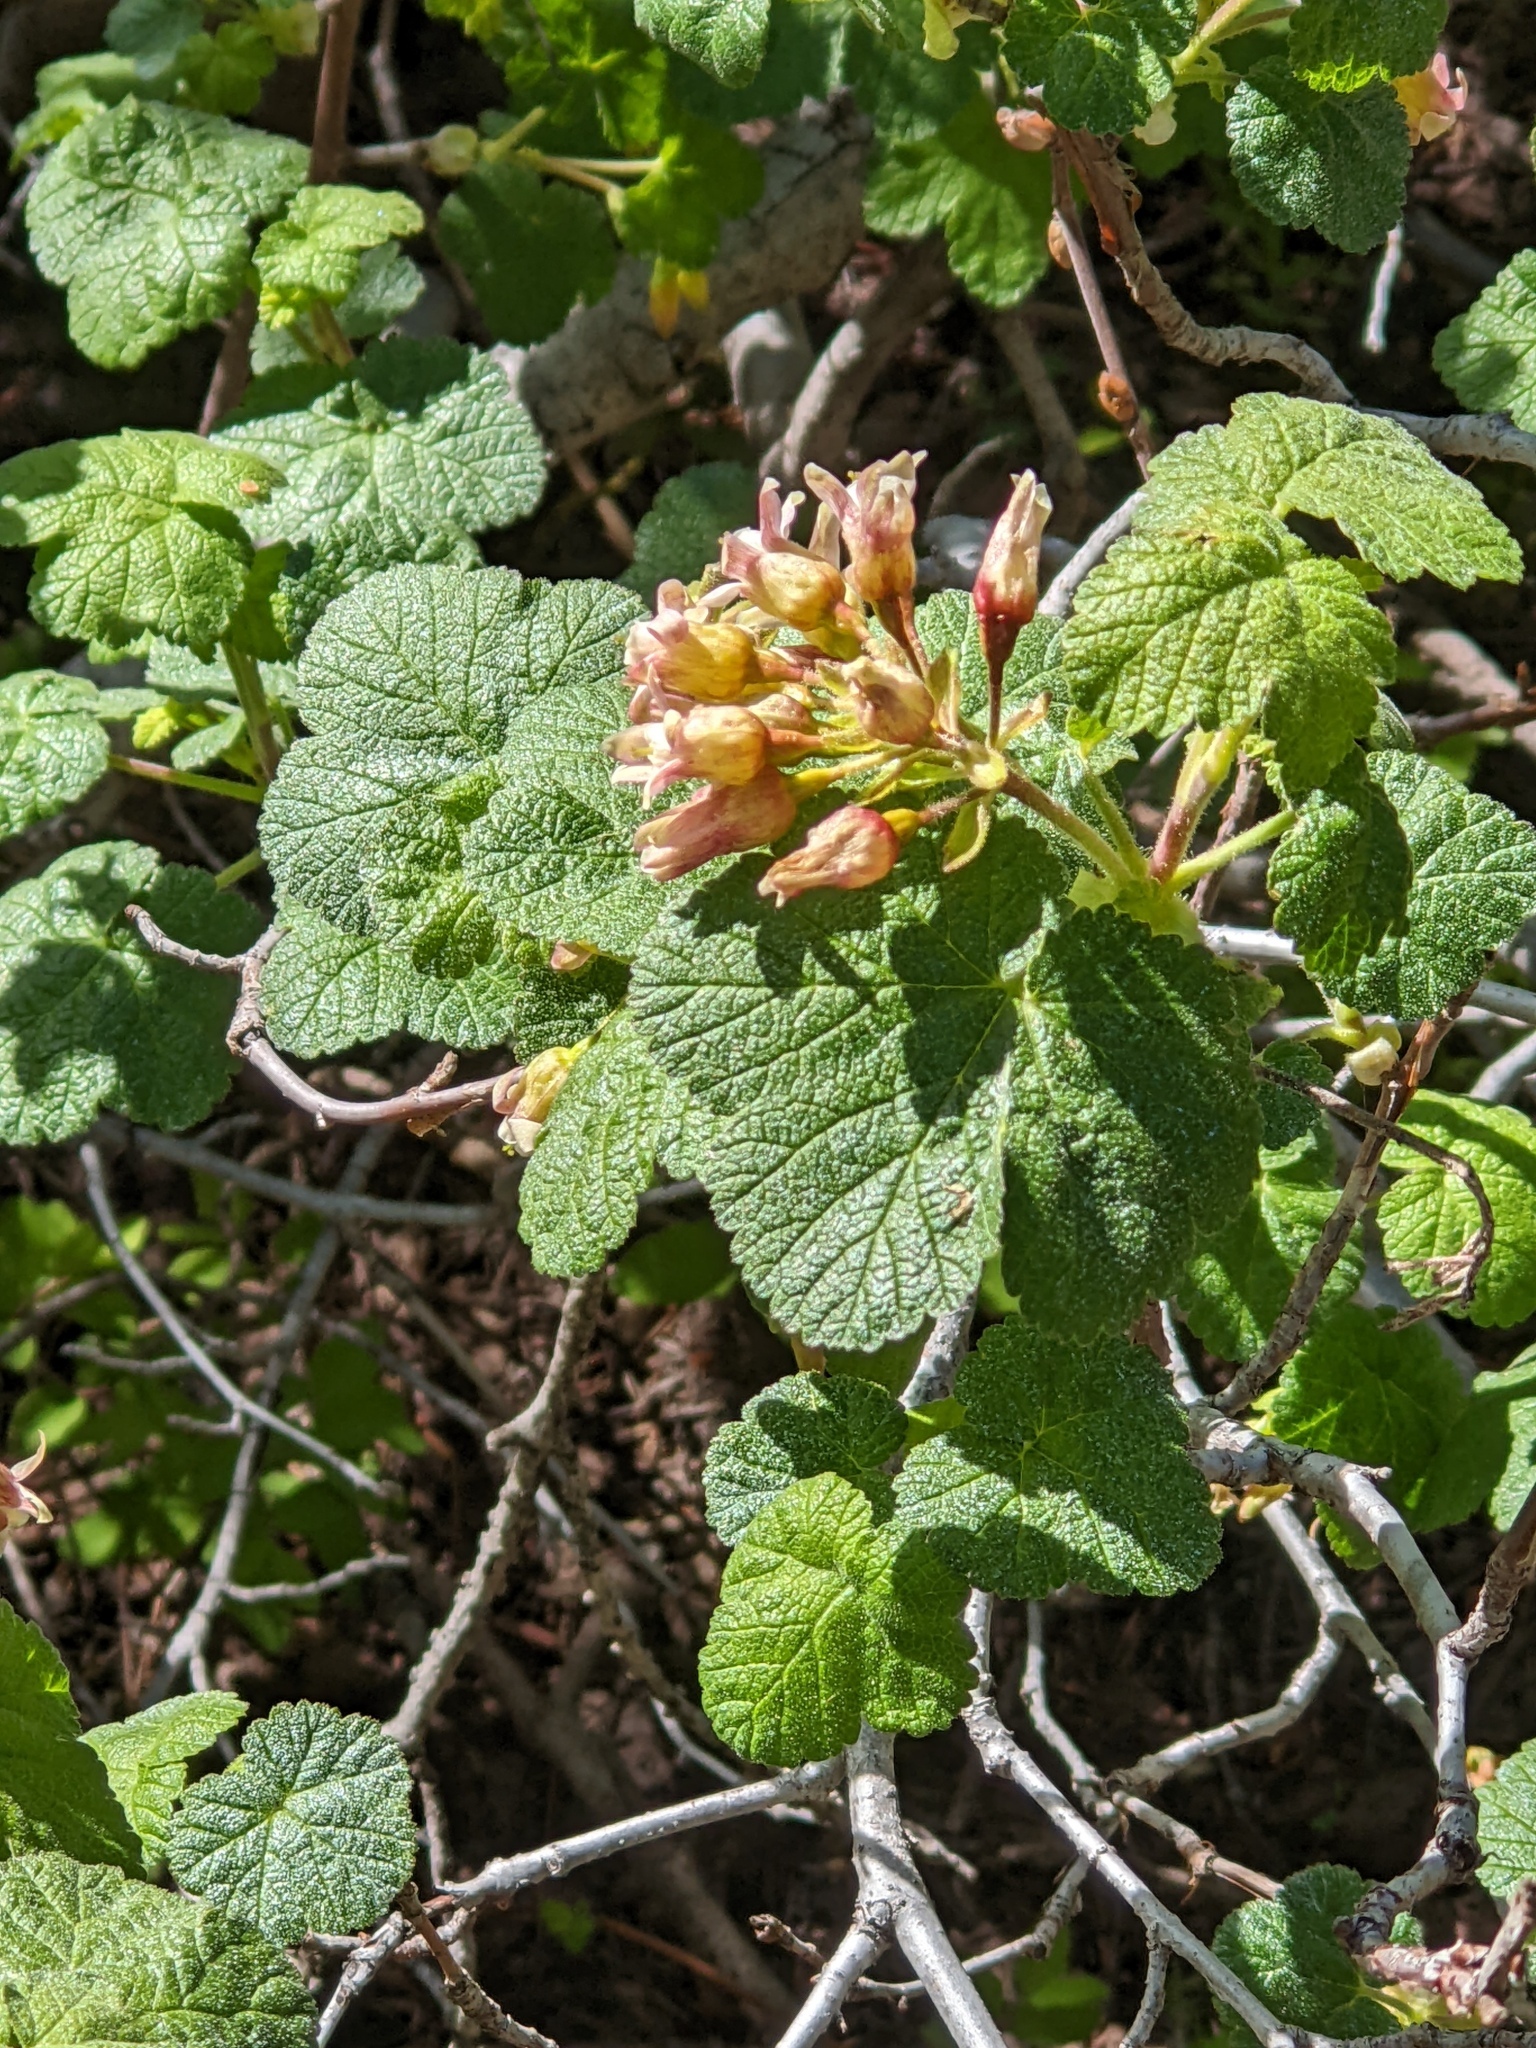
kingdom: Plantae
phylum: Tracheophyta
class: Magnoliopsida
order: Saxifragales
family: Grossulariaceae
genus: Ribes
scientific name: Ribes viscosissimum
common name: Sticky currant
